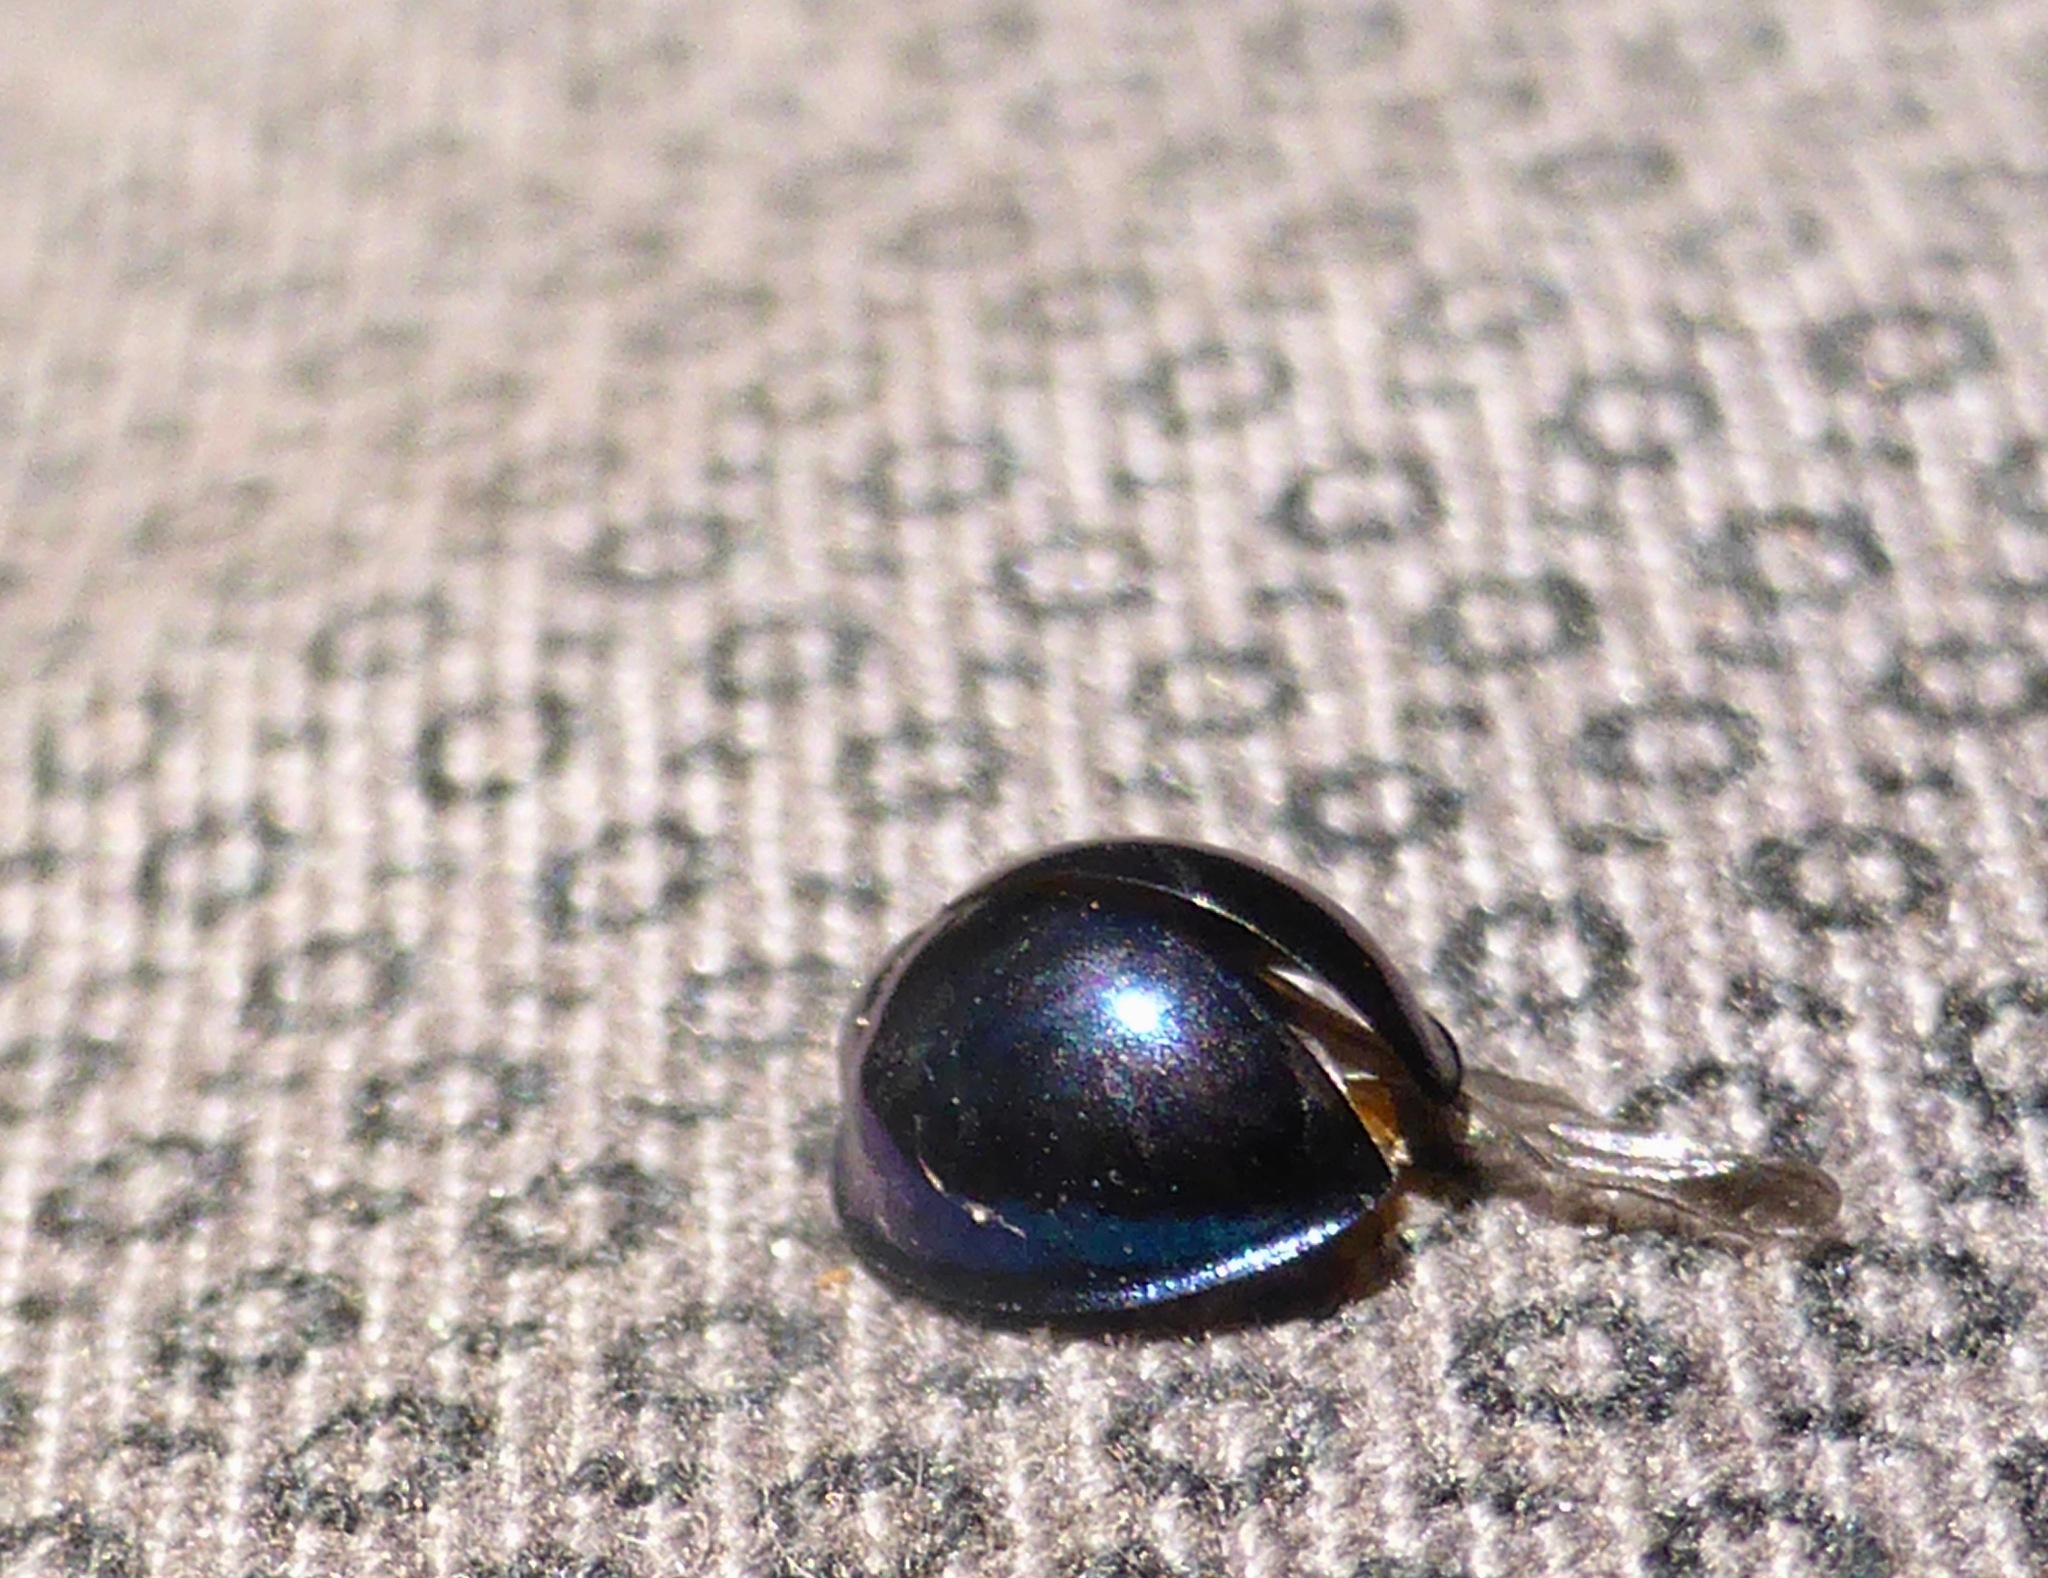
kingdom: Animalia
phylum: Arthropoda
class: Insecta
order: Coleoptera
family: Coccinellidae
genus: Halmus
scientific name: Halmus chalybeus
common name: Steel blue ladybird beetle
